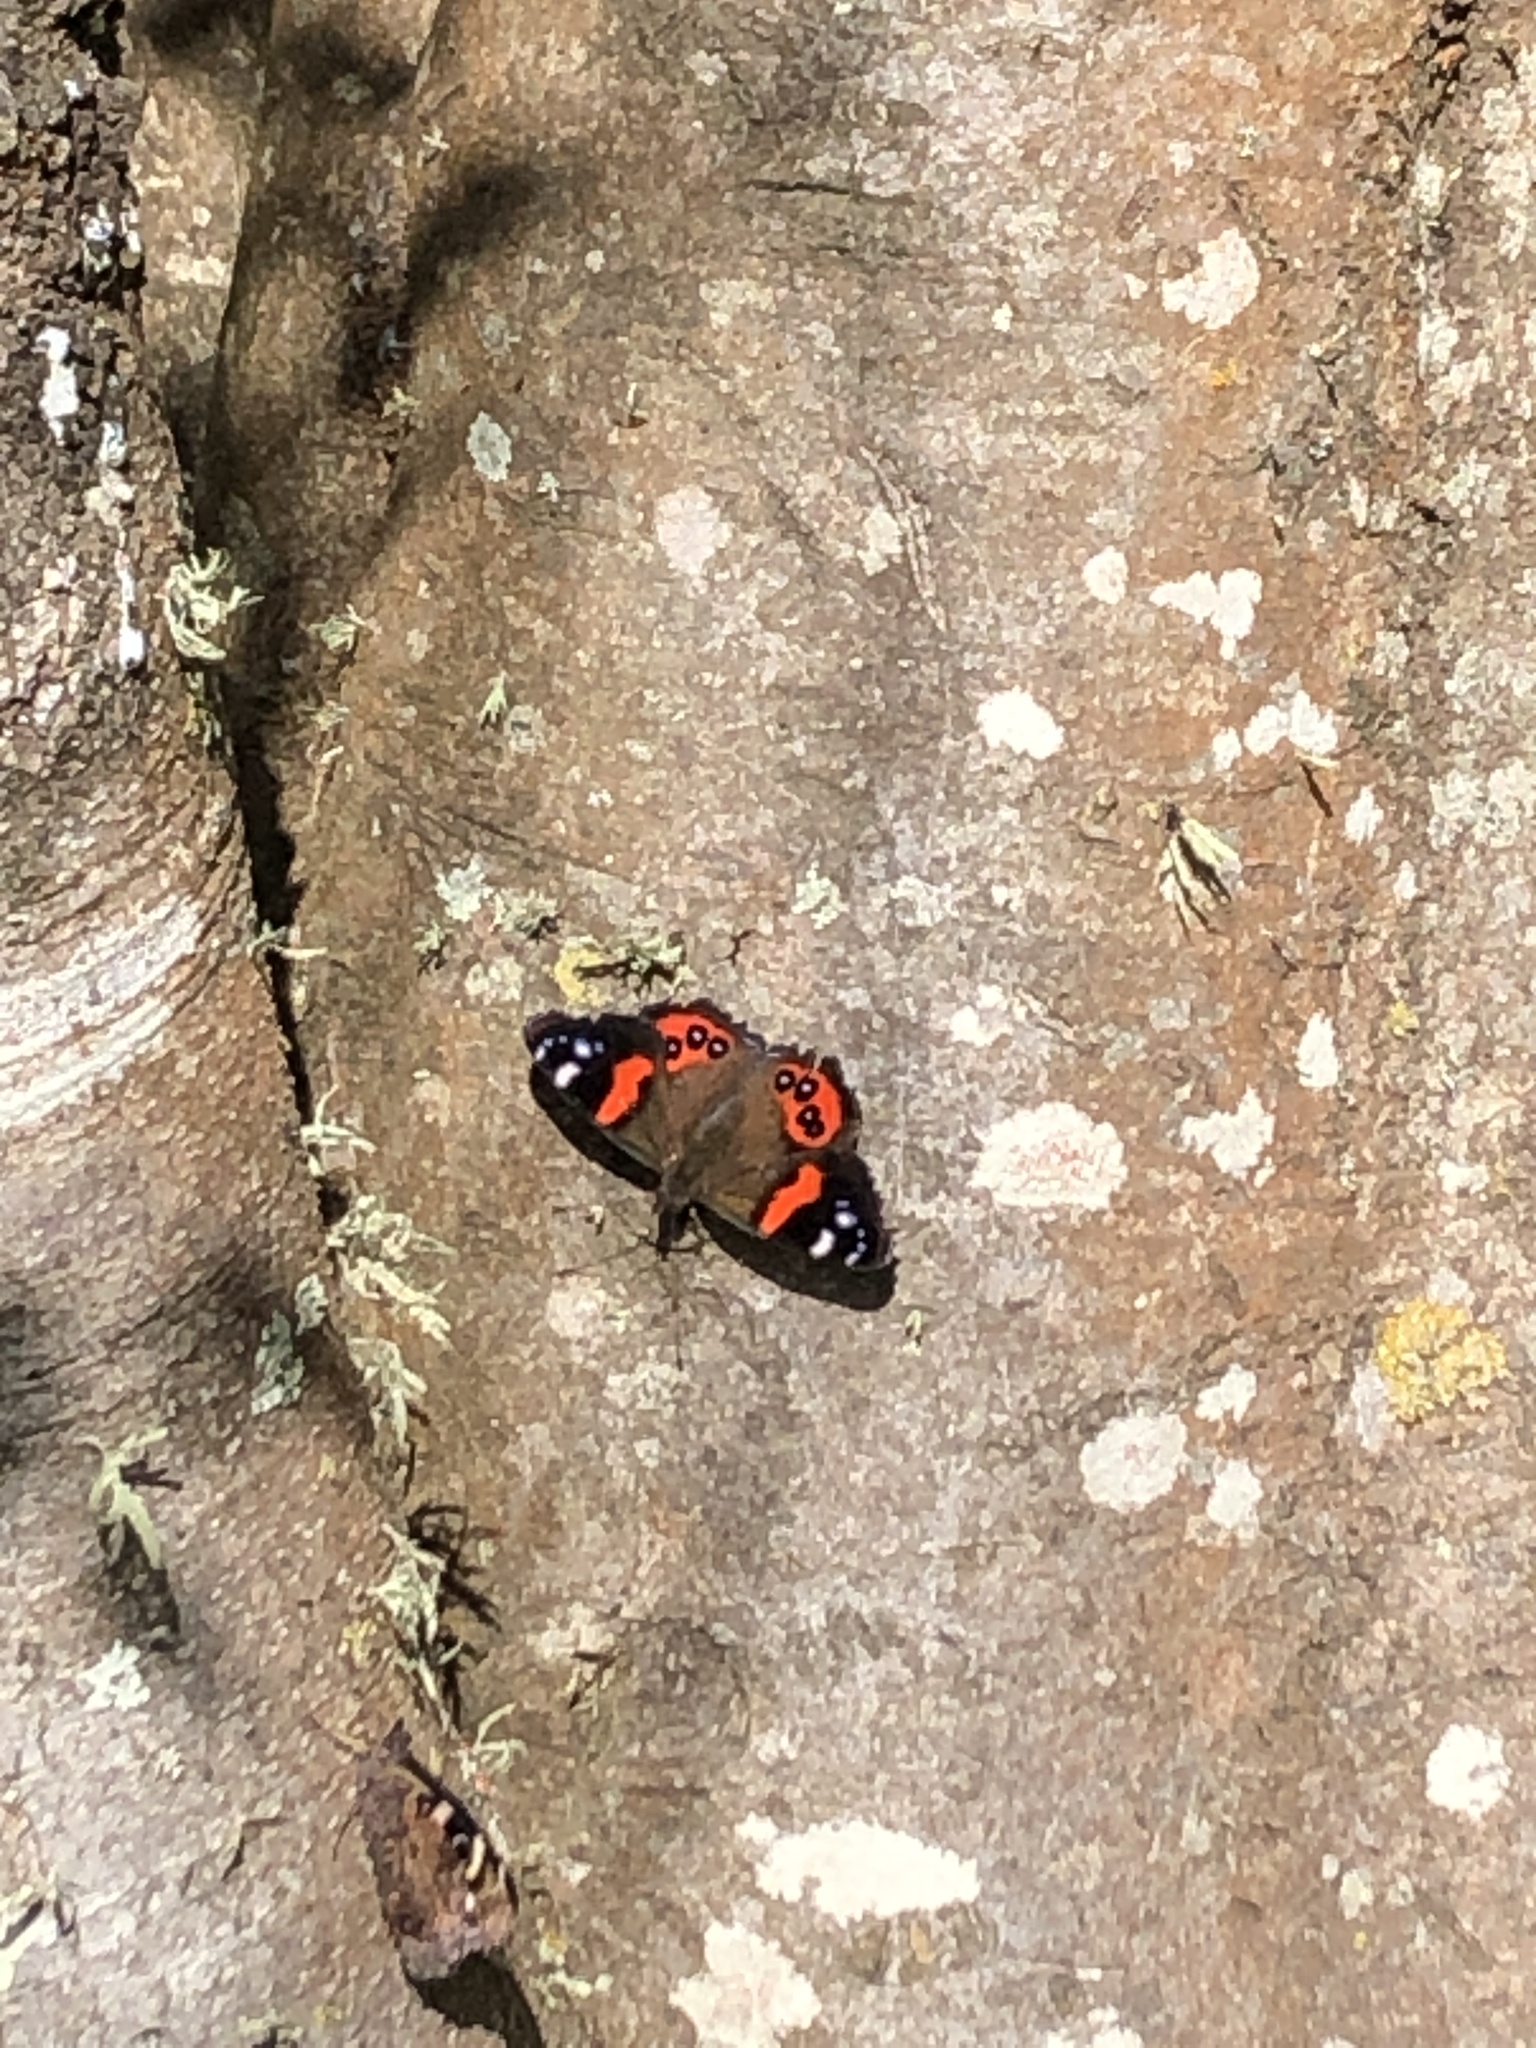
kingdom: Animalia
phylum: Arthropoda
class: Insecta
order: Lepidoptera
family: Nymphalidae
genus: Vanessa
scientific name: Vanessa gonerilla
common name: New zealand red admiral
